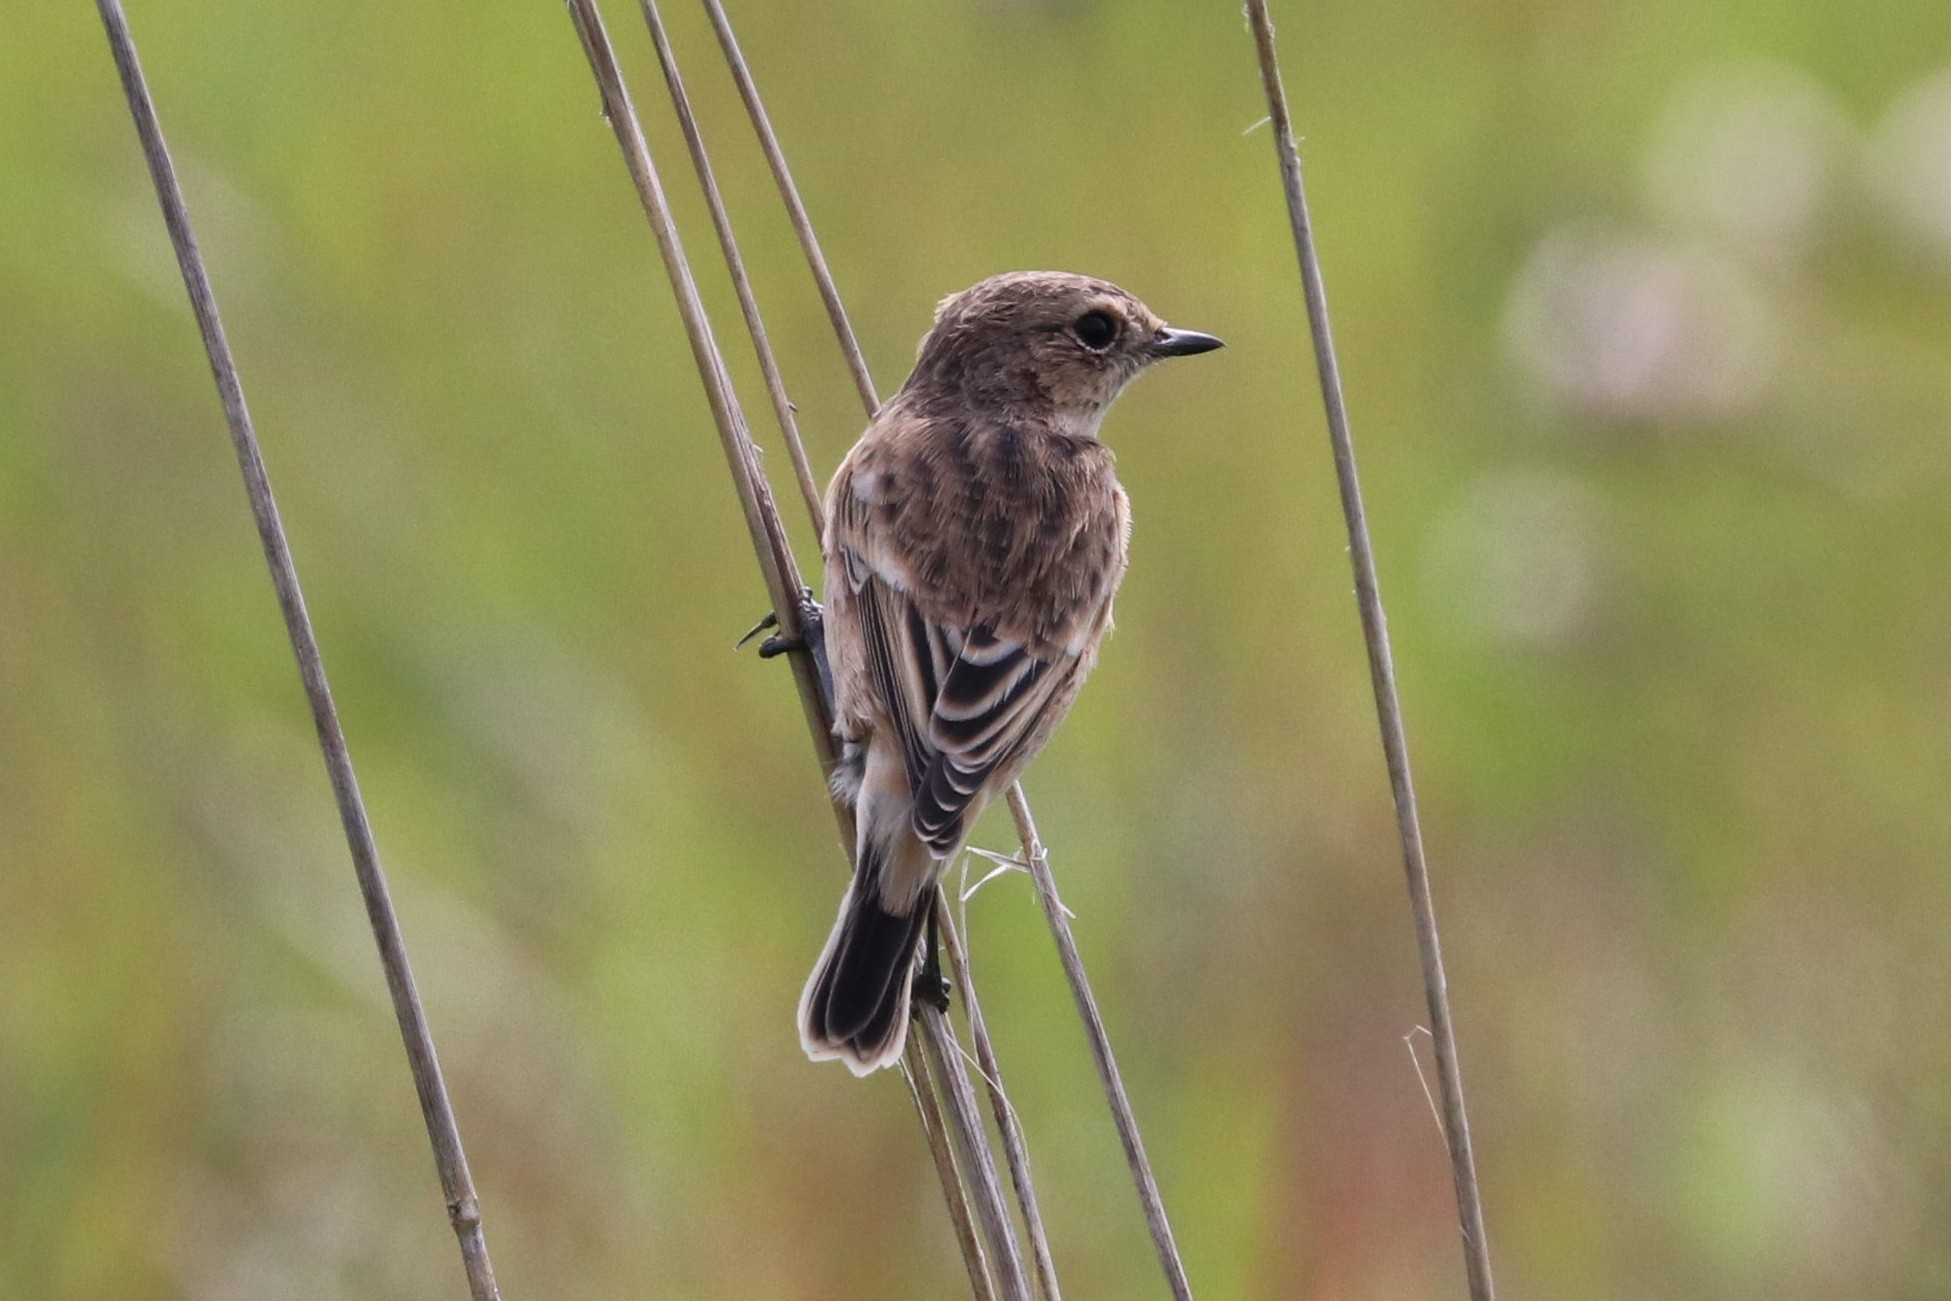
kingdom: Animalia
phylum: Chordata
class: Aves
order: Passeriformes
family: Muscicapidae
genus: Saxicola
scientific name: Saxicola maurus
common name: Siberian stonechat
